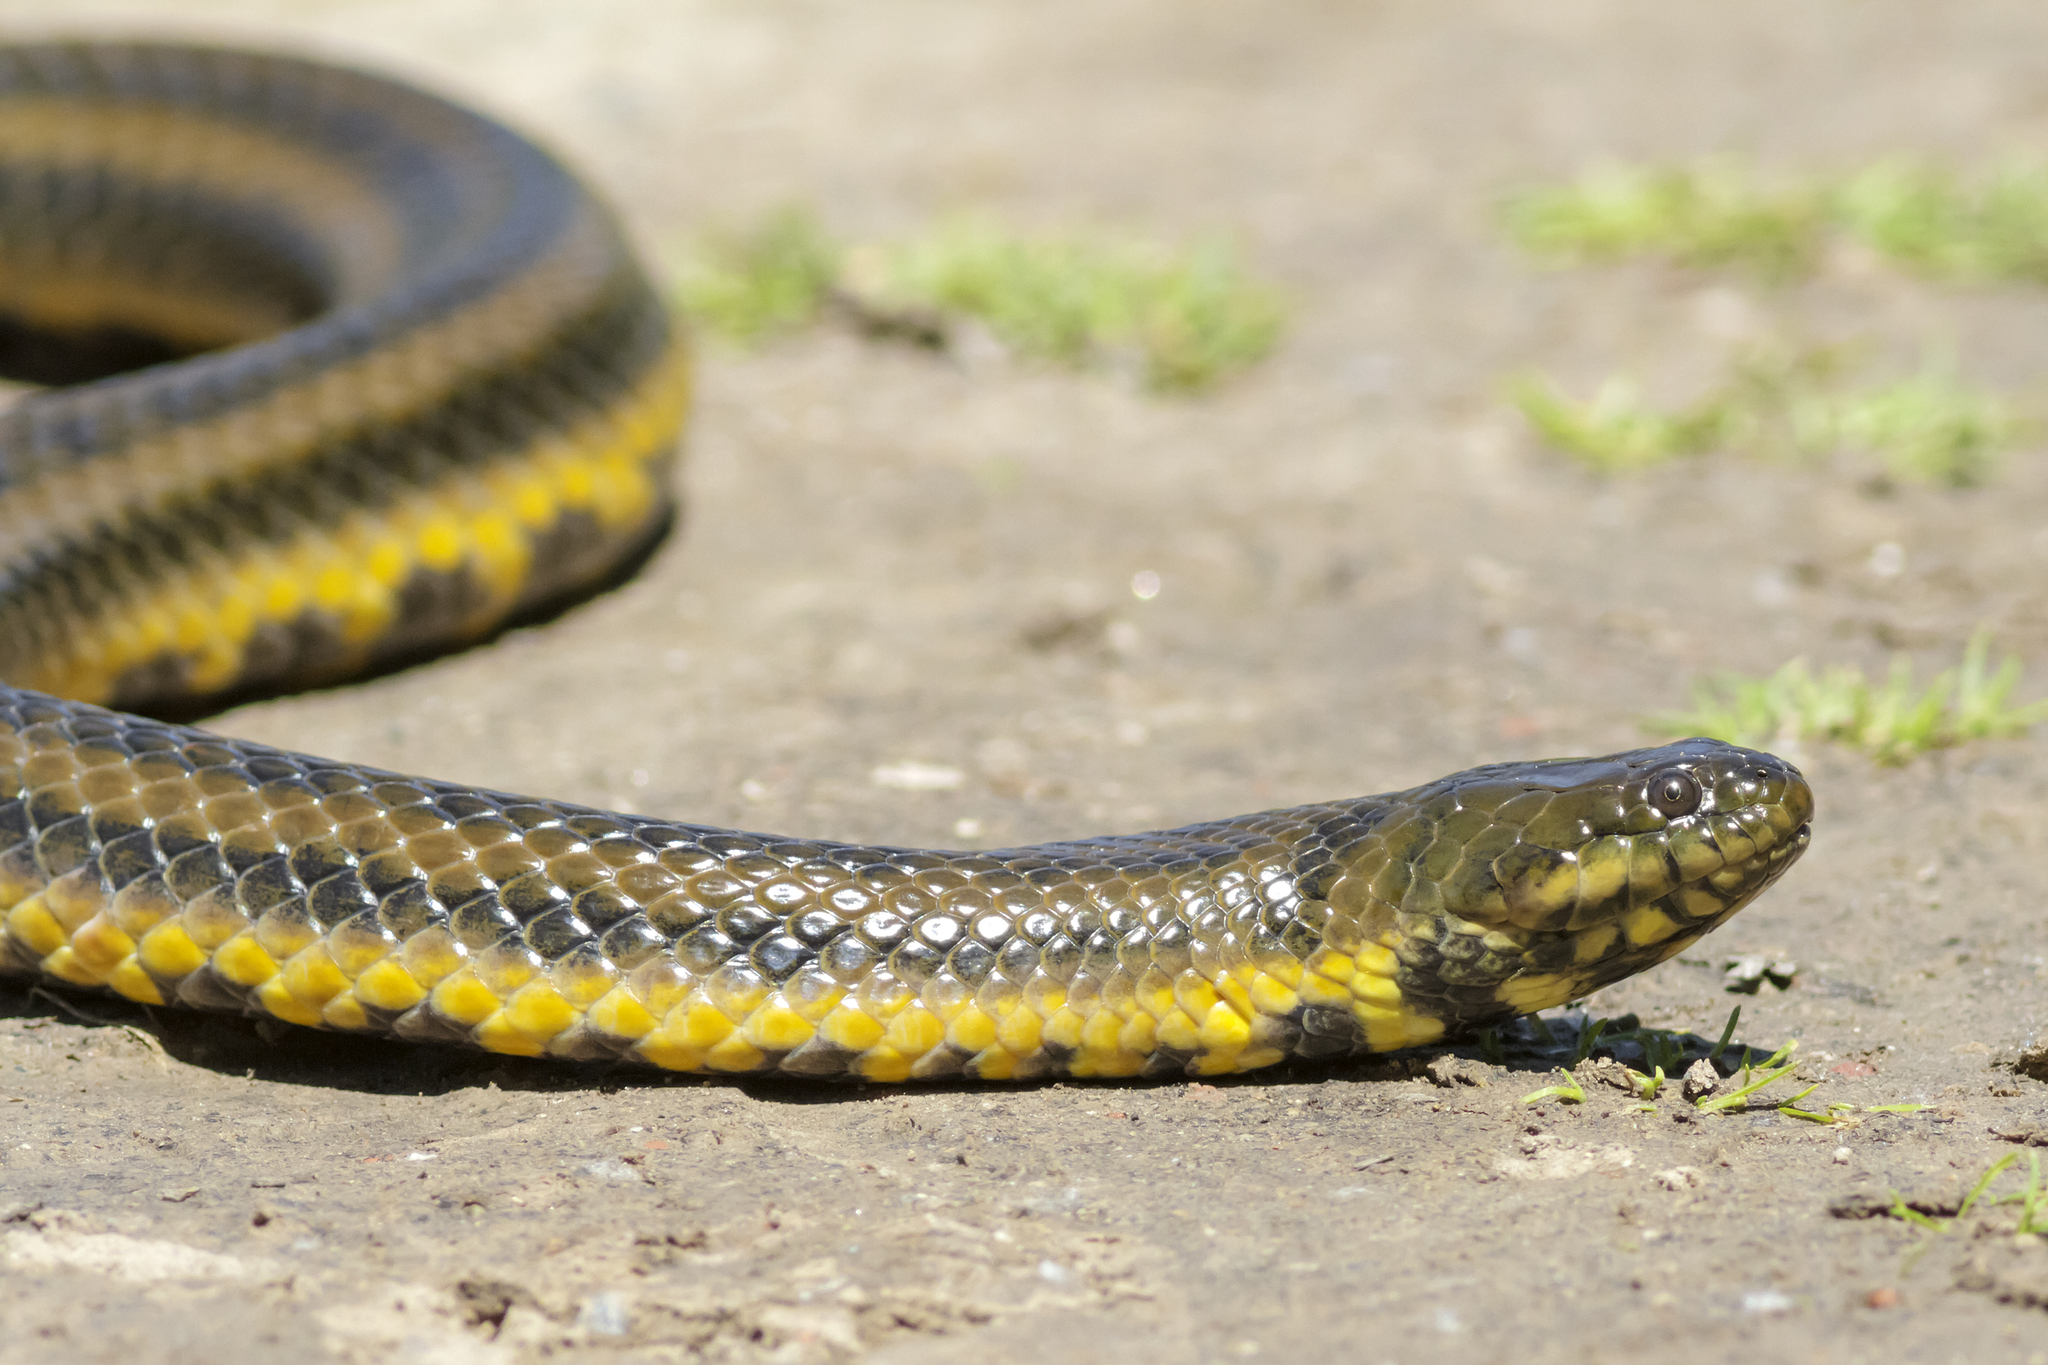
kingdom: Animalia
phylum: Chordata
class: Squamata
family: Colubridae
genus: Helicops
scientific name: Helicops infrataeniatus
